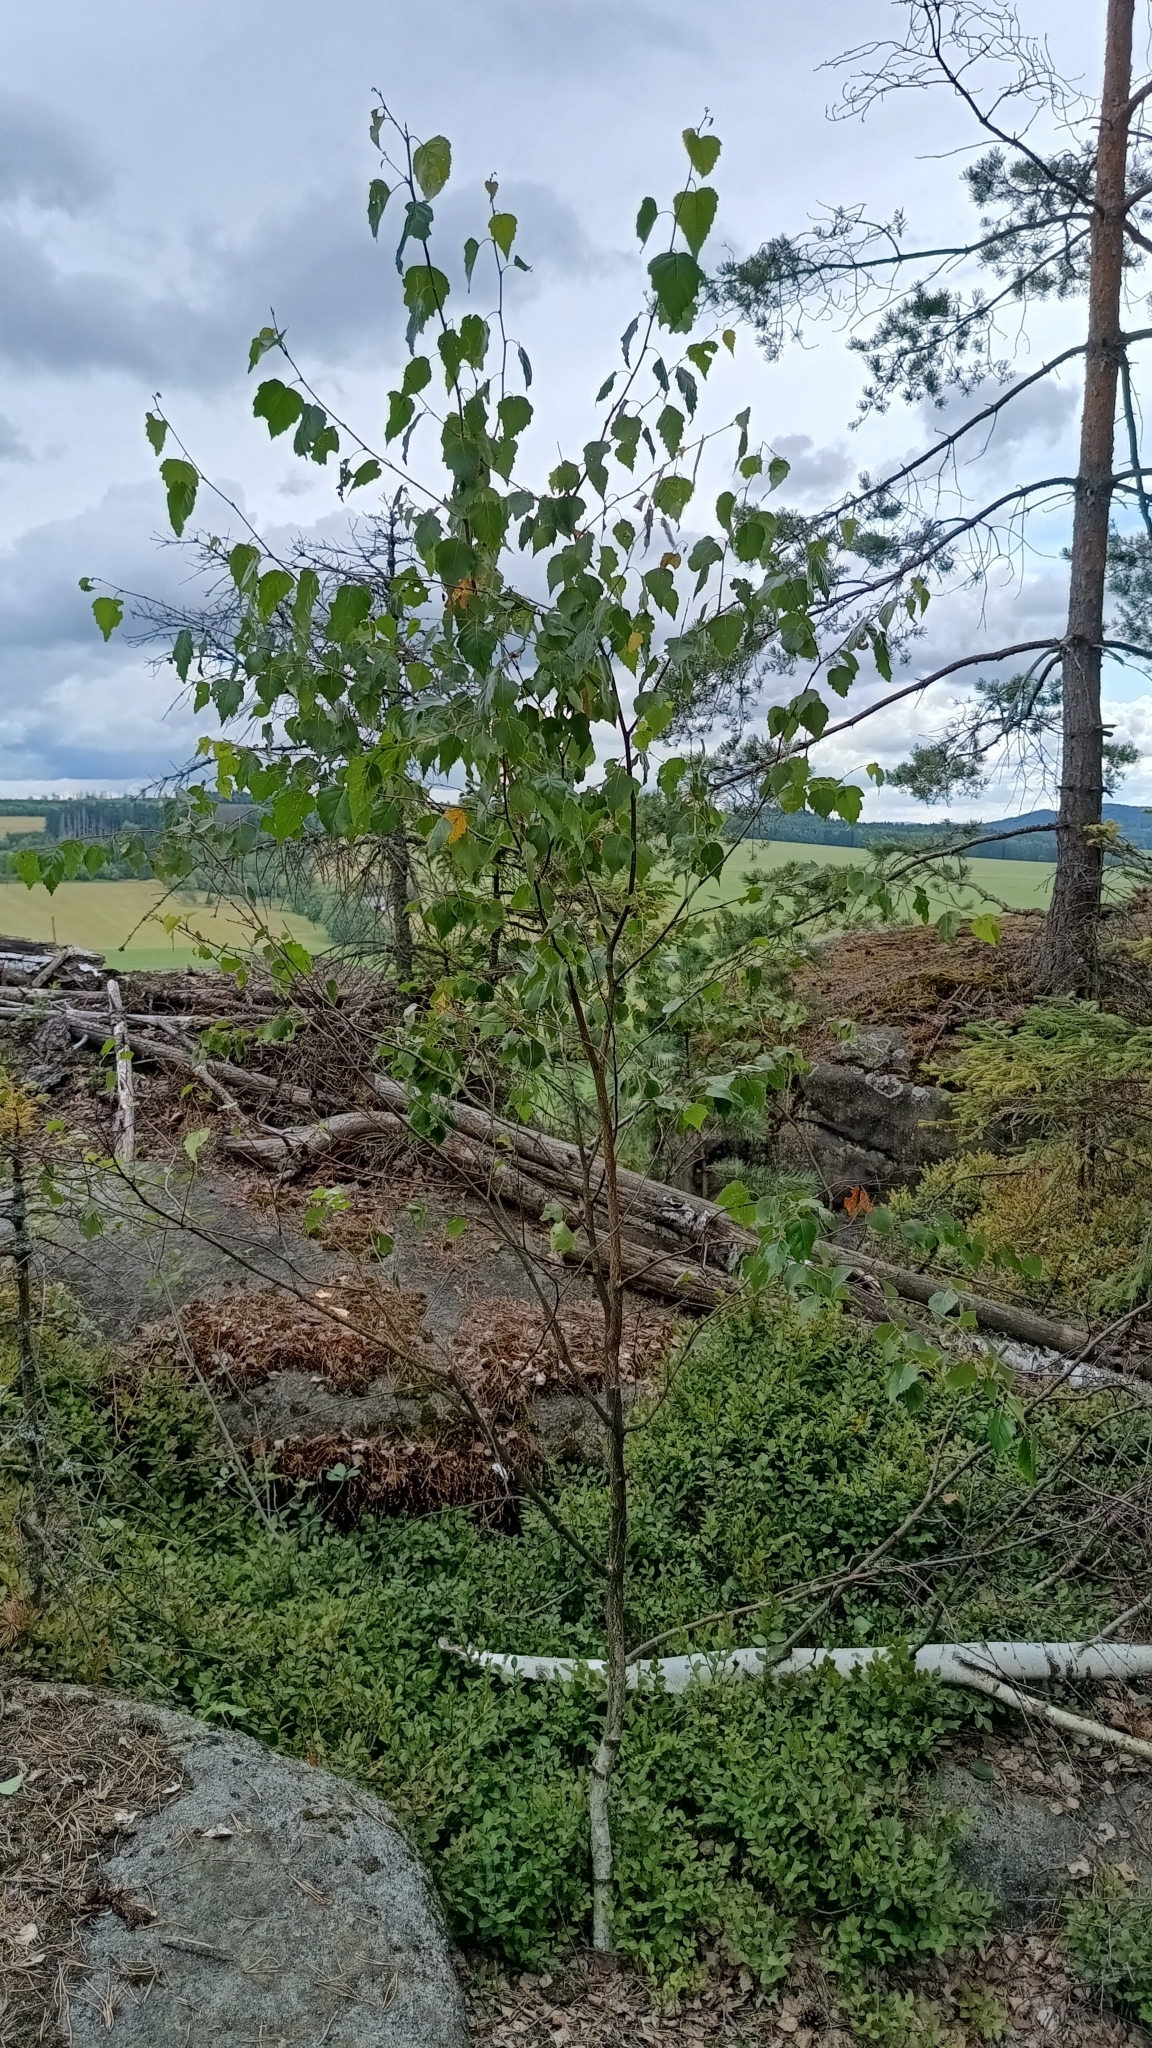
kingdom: Plantae
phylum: Tracheophyta
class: Magnoliopsida
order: Fagales
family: Betulaceae
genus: Betula
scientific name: Betula pendula
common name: Silver birch
